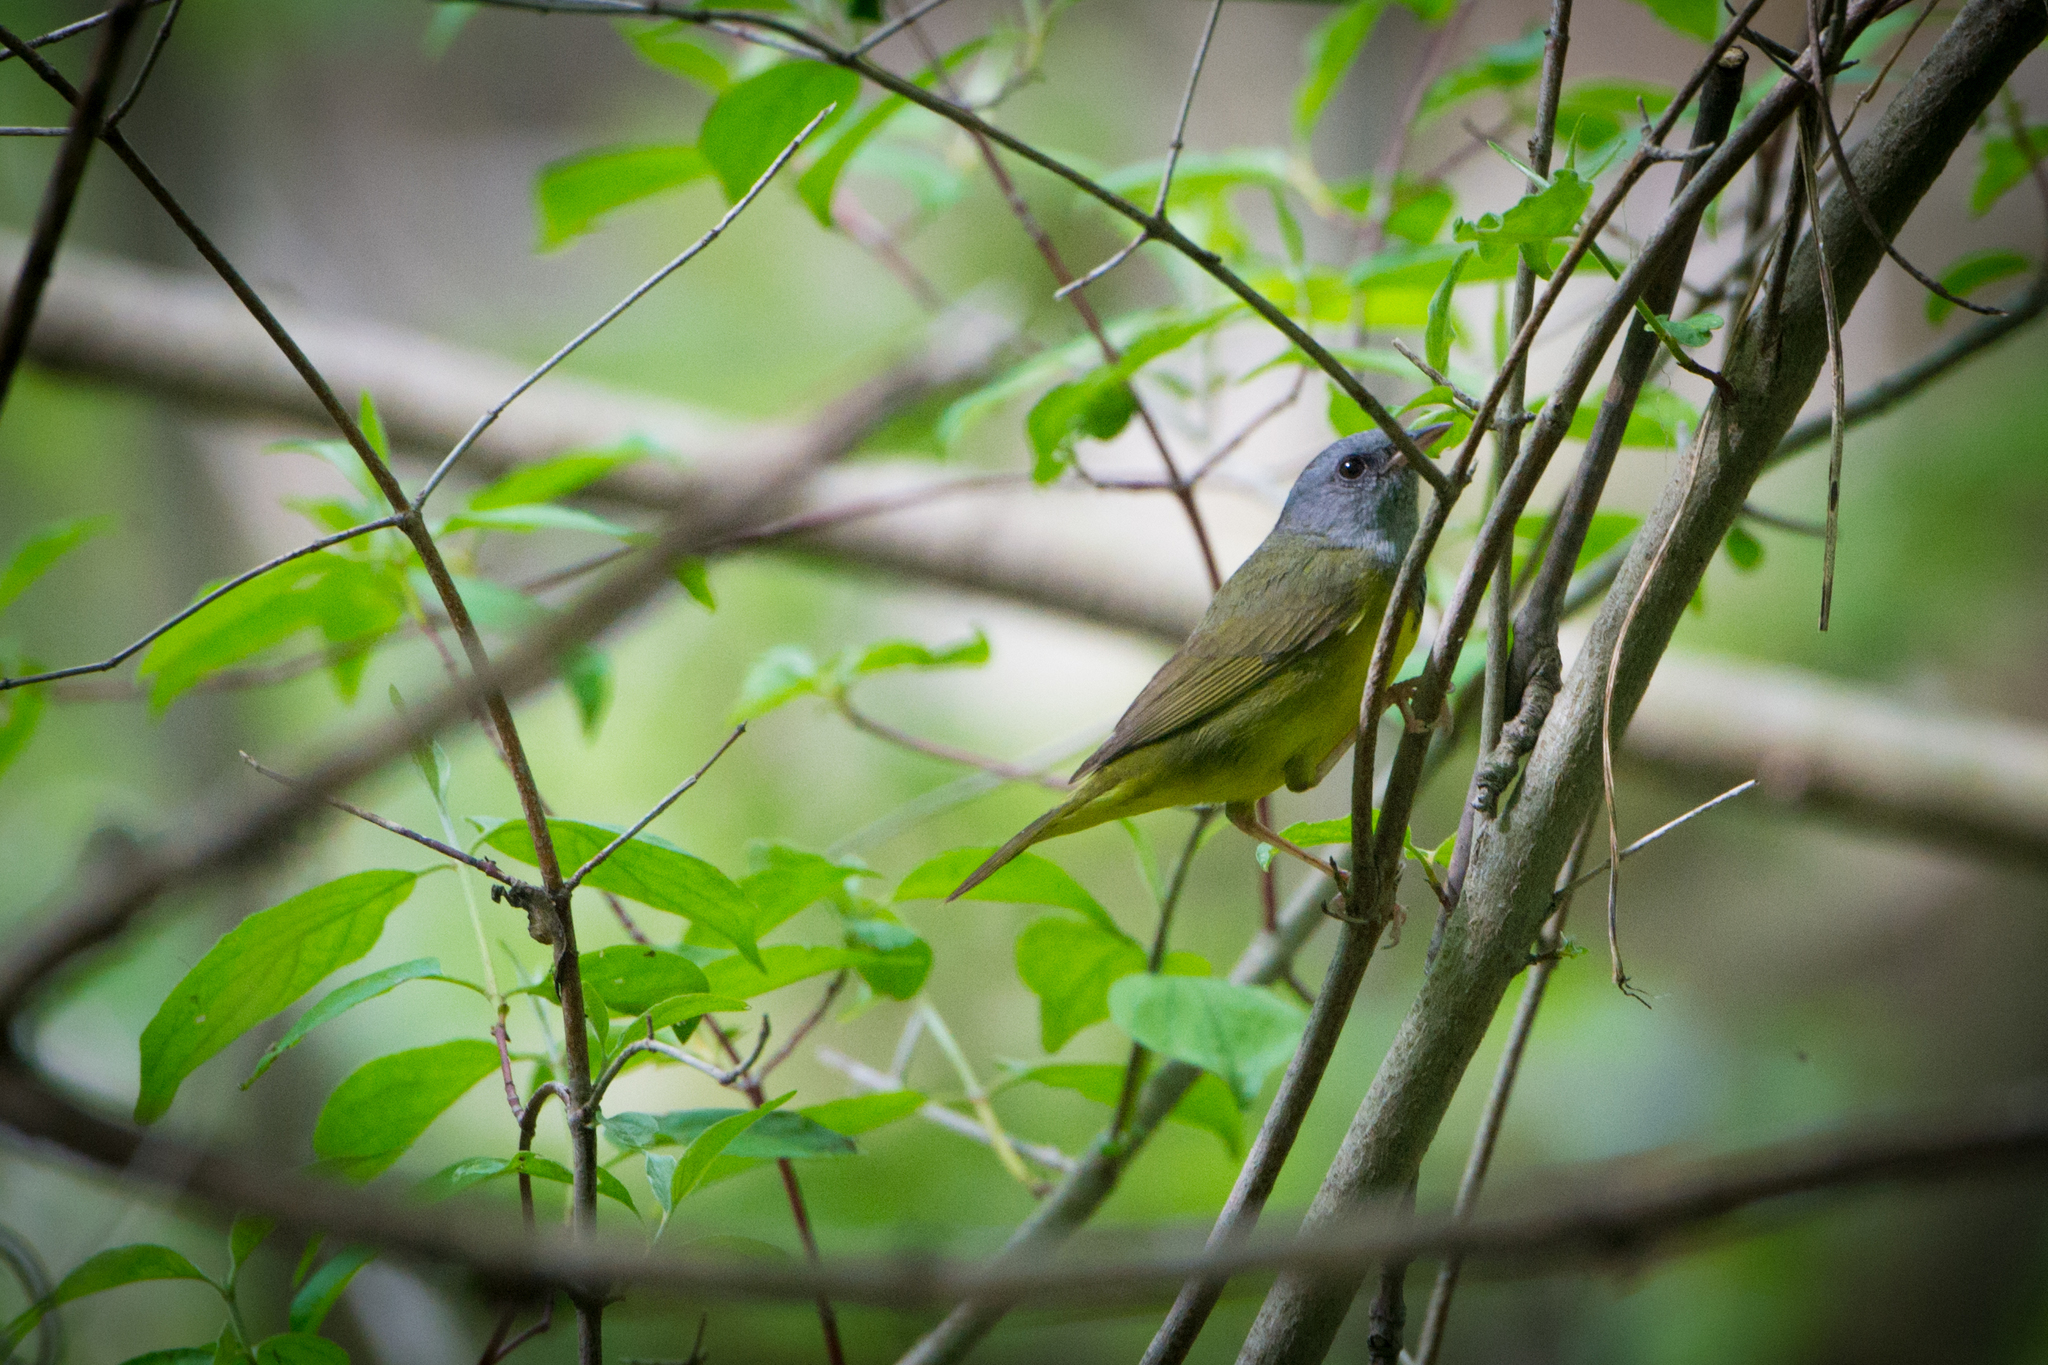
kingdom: Animalia
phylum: Chordata
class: Aves
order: Passeriformes
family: Parulidae
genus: Geothlypis
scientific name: Geothlypis philadelphia
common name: Mourning warbler
